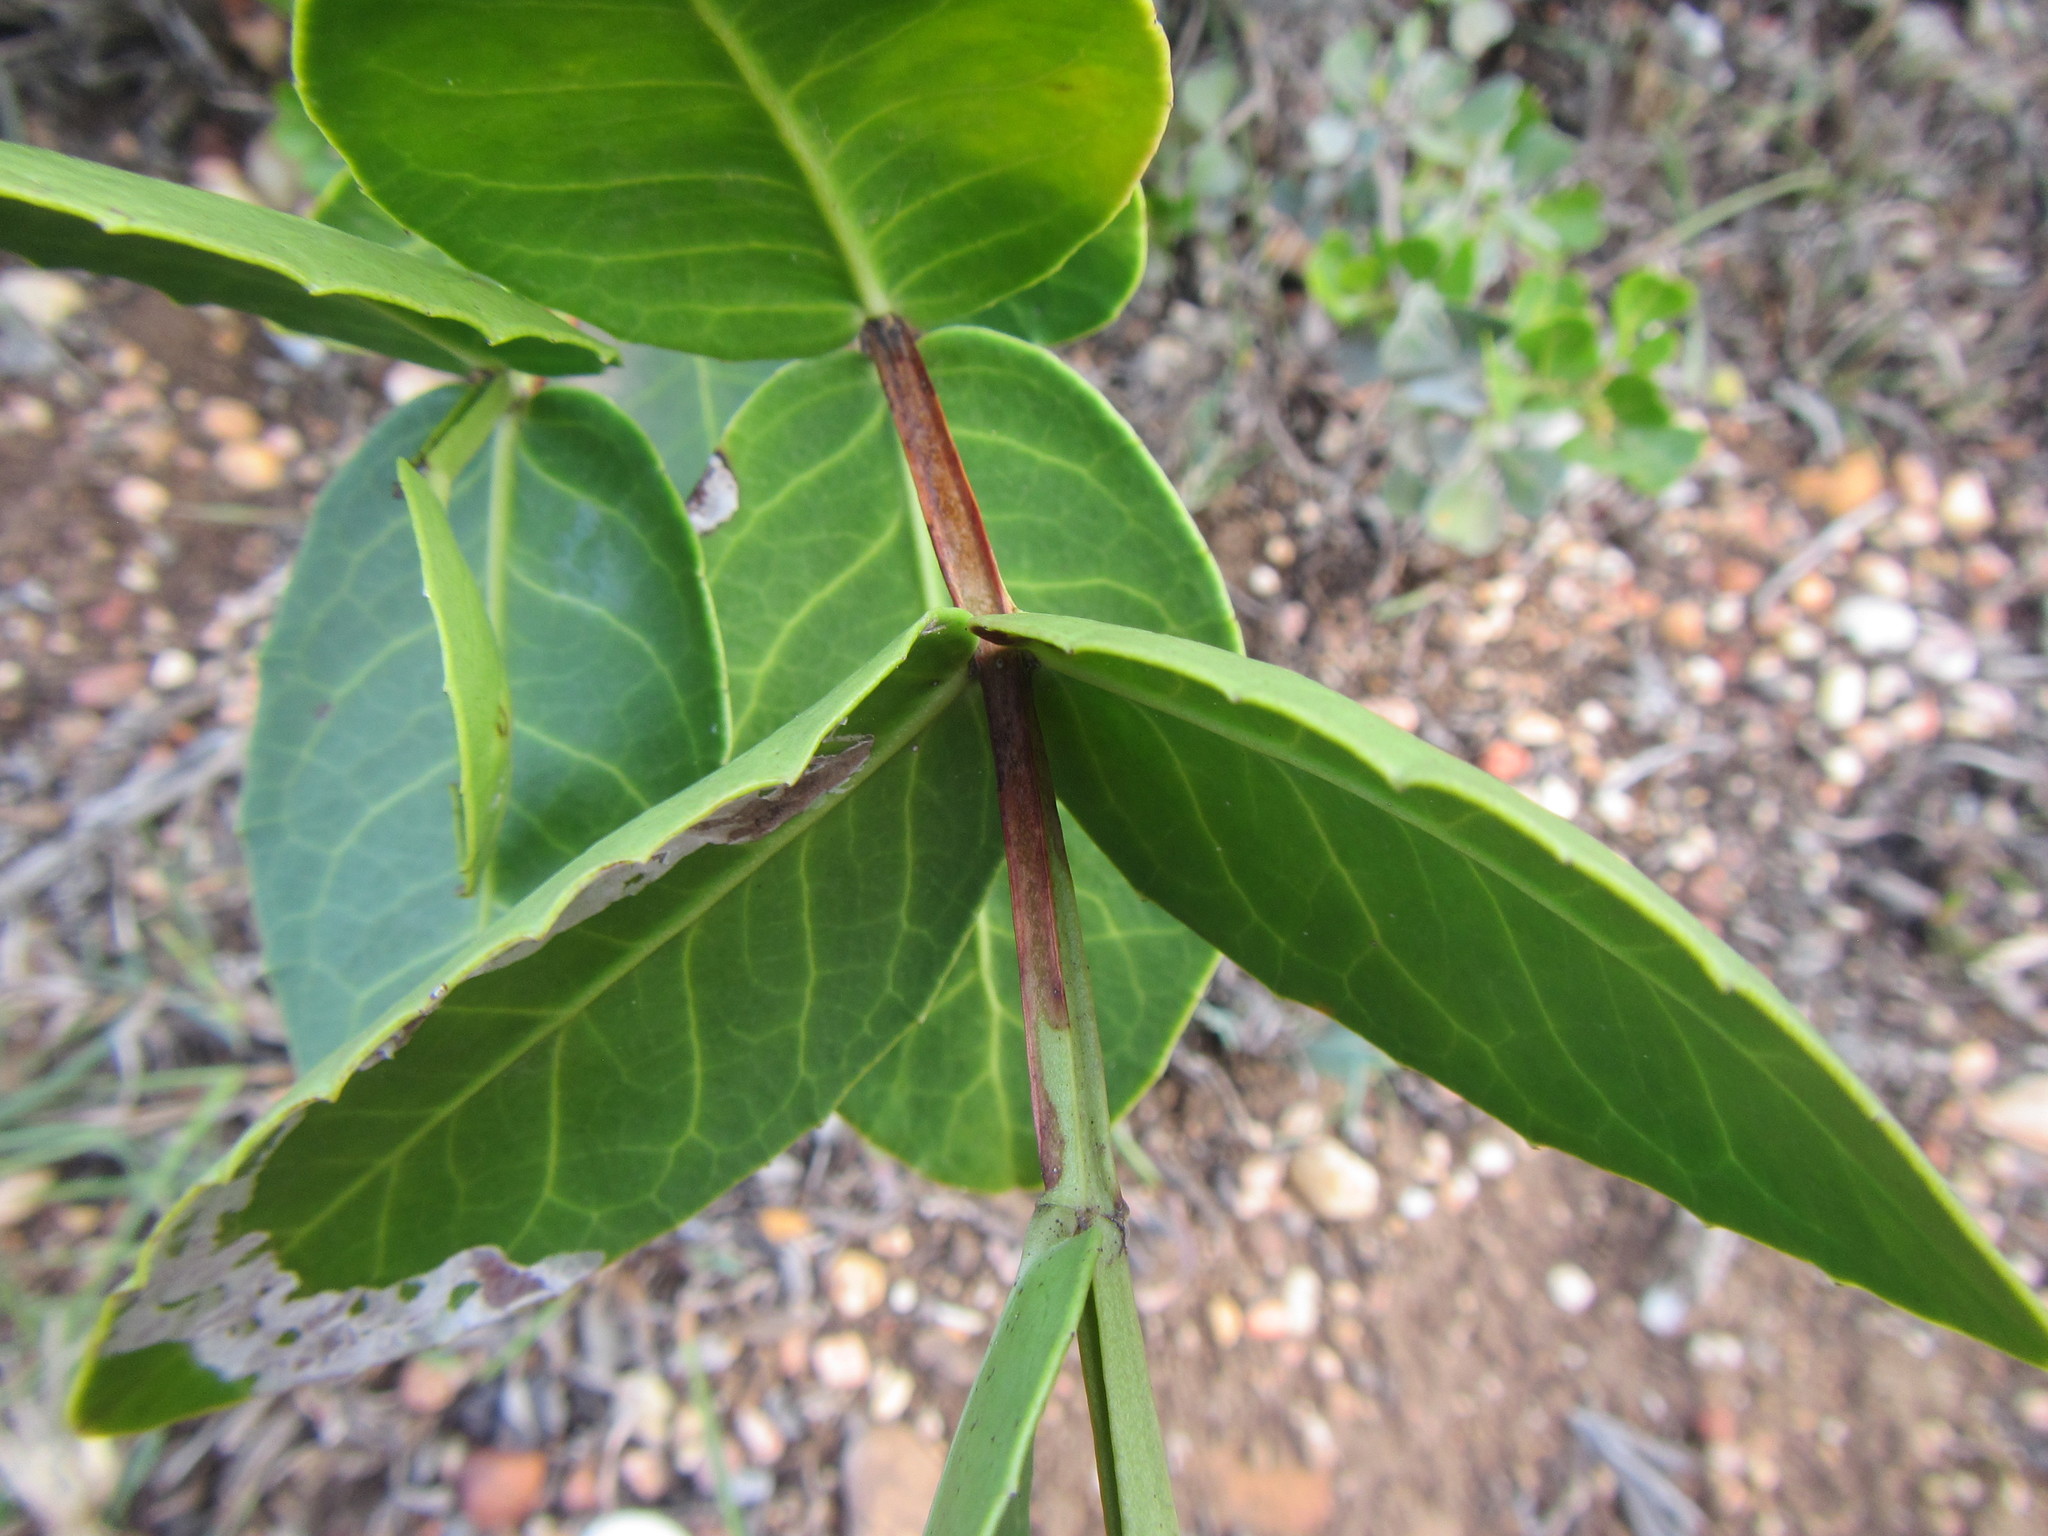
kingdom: Plantae
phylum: Tracheophyta
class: Magnoliopsida
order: Celastrales
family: Celastraceae
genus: Lauridia
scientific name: Lauridia tetragona
